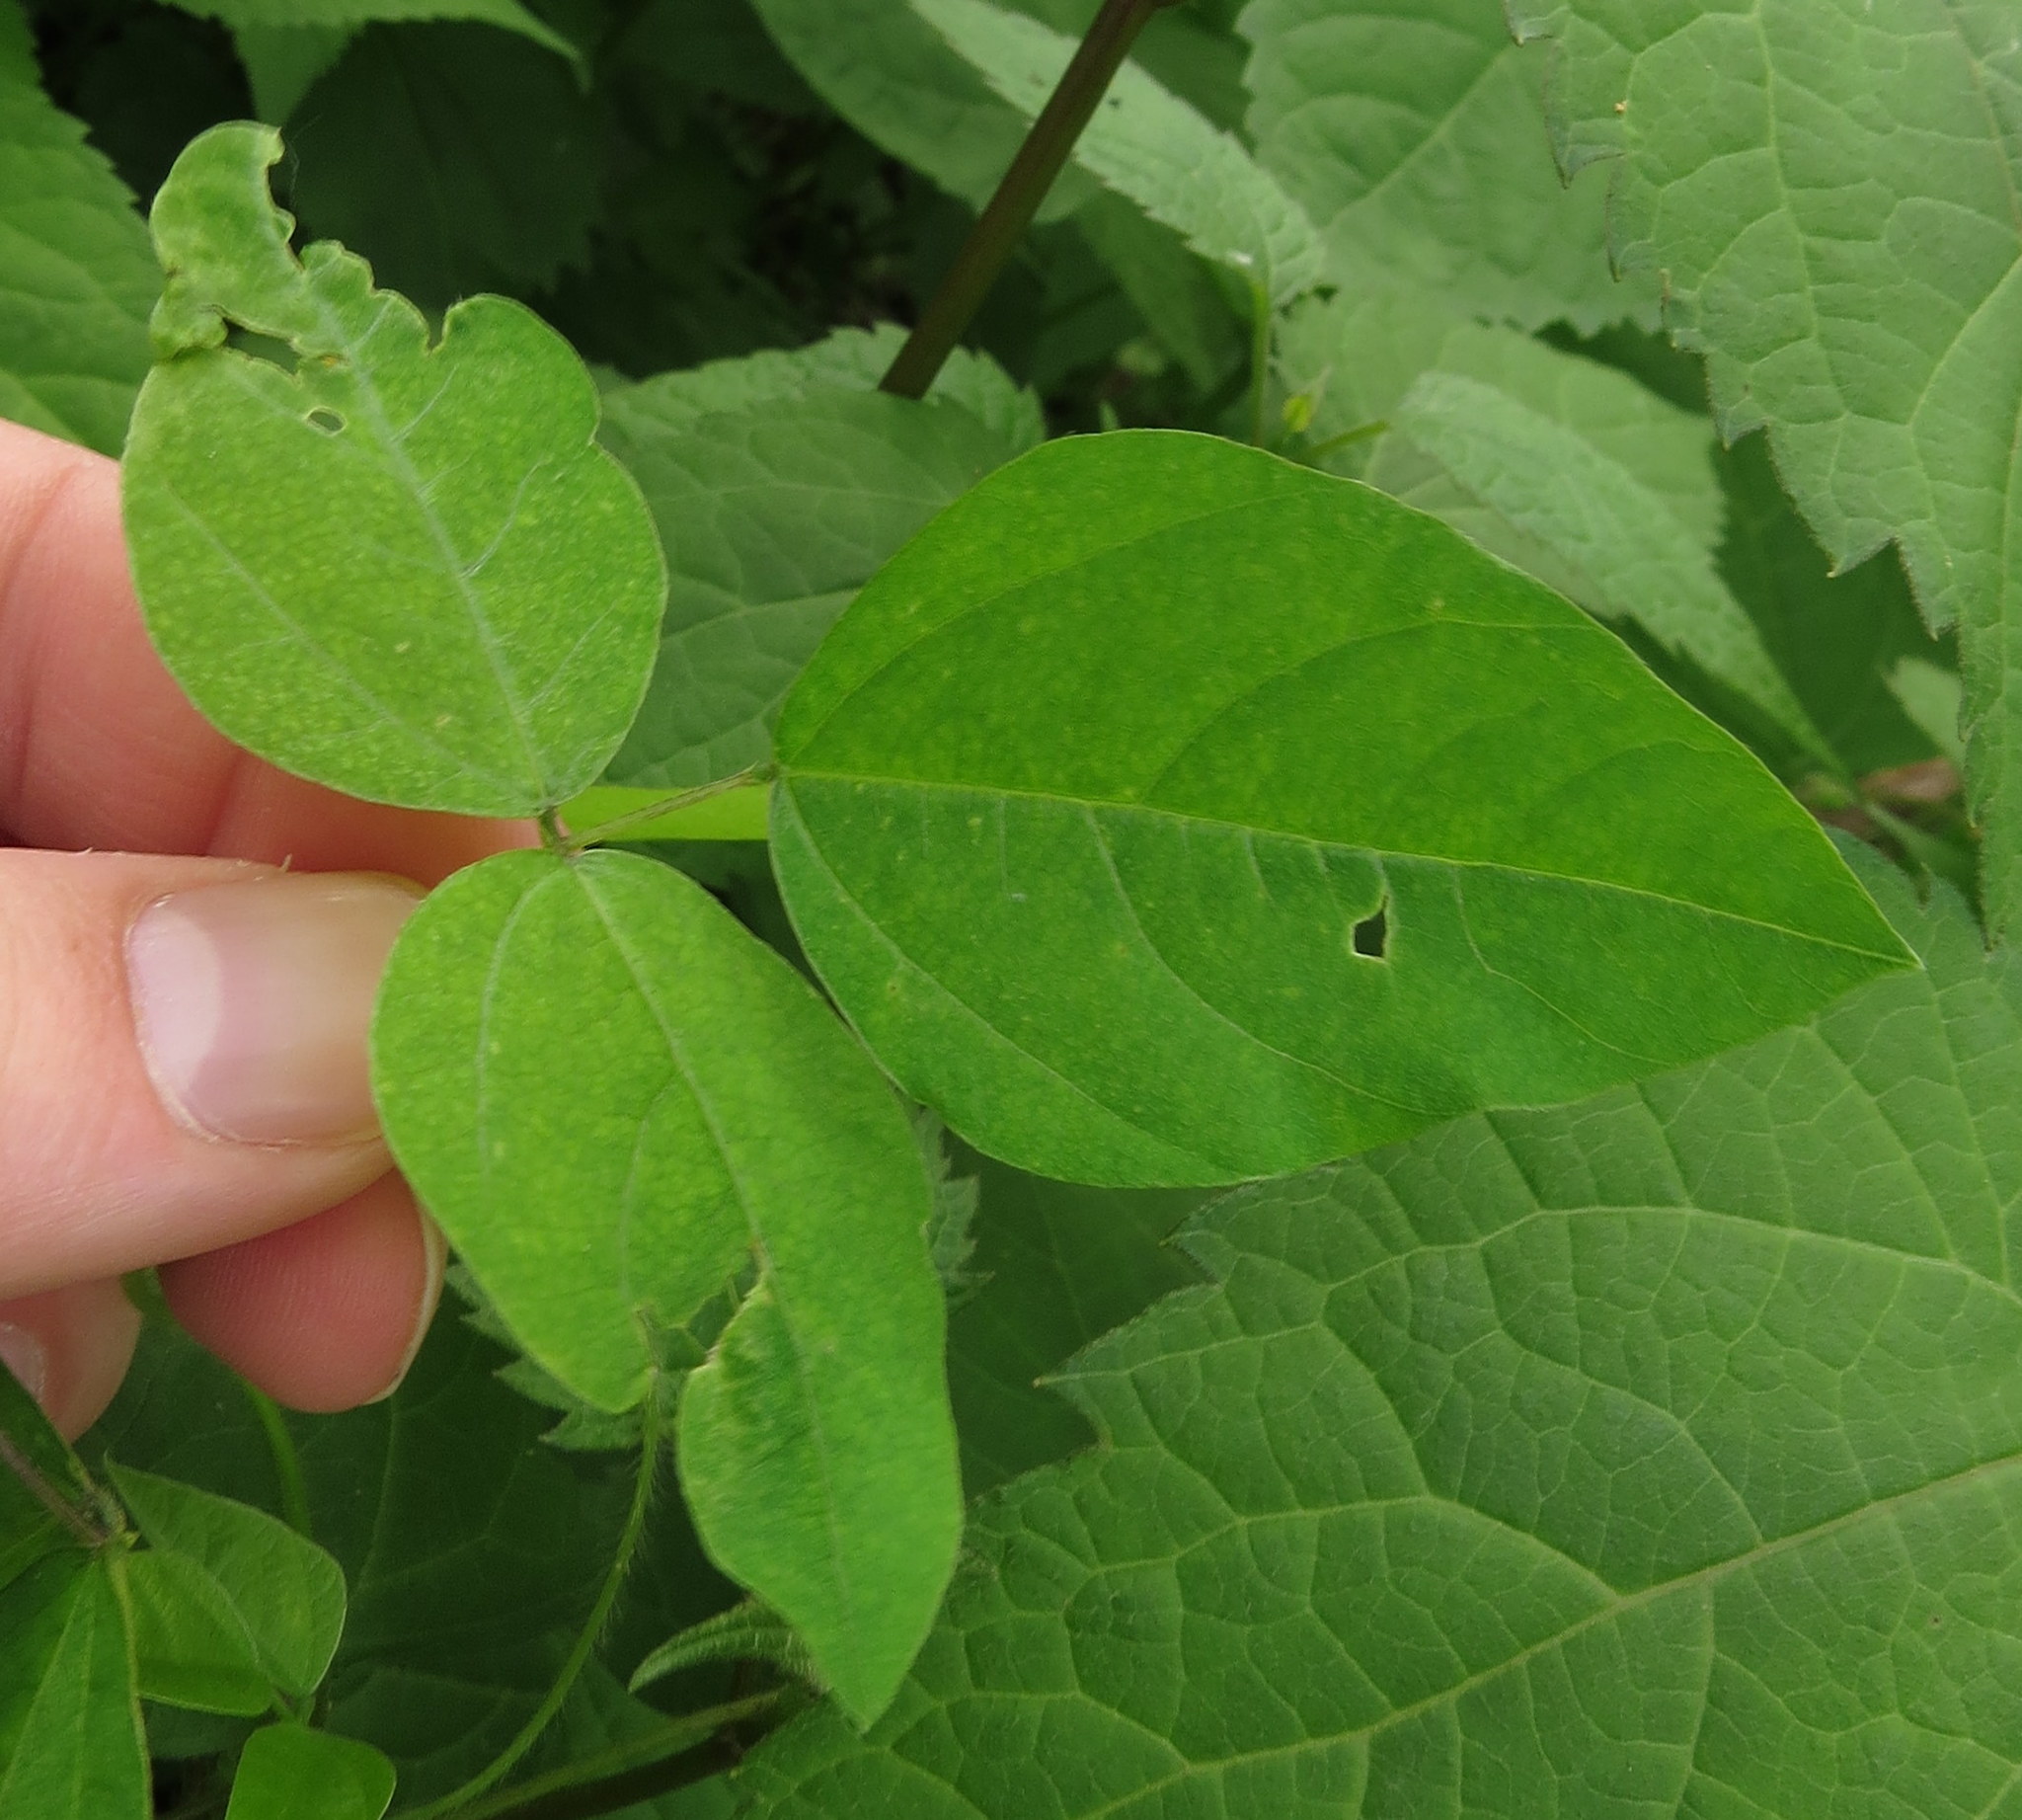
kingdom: Plantae
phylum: Tracheophyta
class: Magnoliopsida
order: Fabales
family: Fabaceae
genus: Amphicarpaea
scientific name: Amphicarpaea bracteata
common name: American hog peanut
